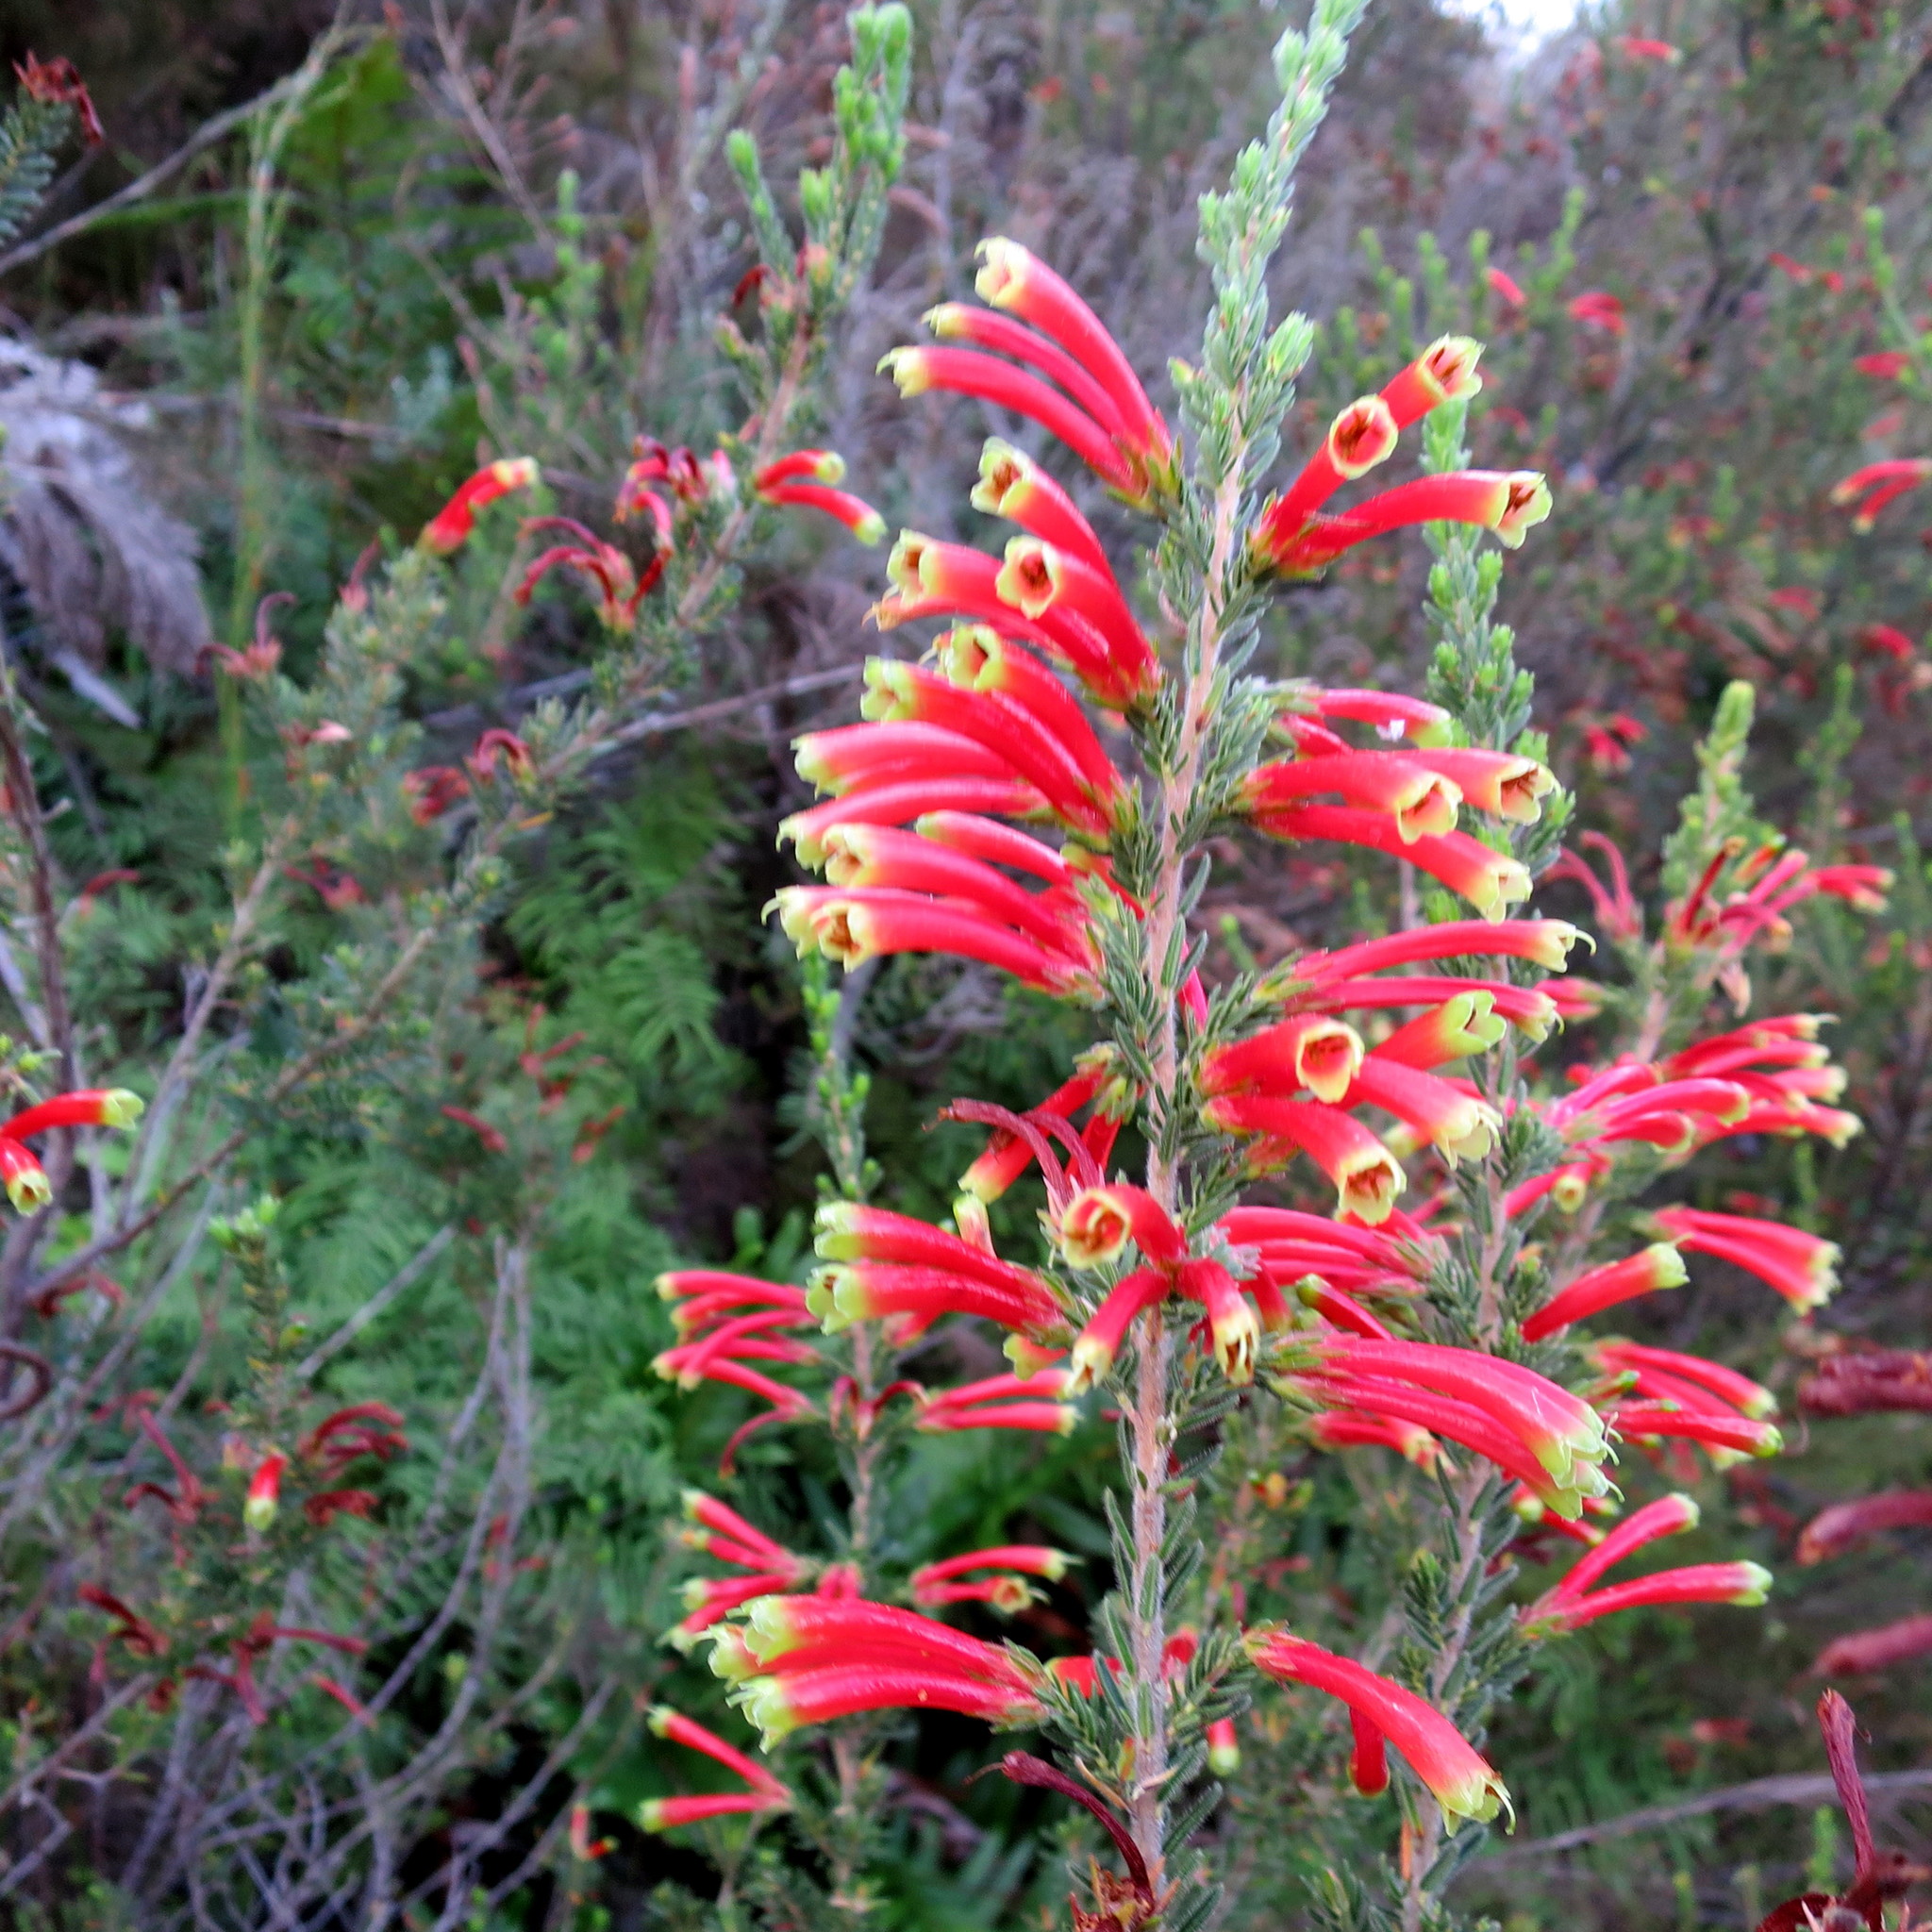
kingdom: Plantae
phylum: Tracheophyta
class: Magnoliopsida
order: Ericales
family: Ericaceae
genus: Erica
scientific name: Erica discolor
